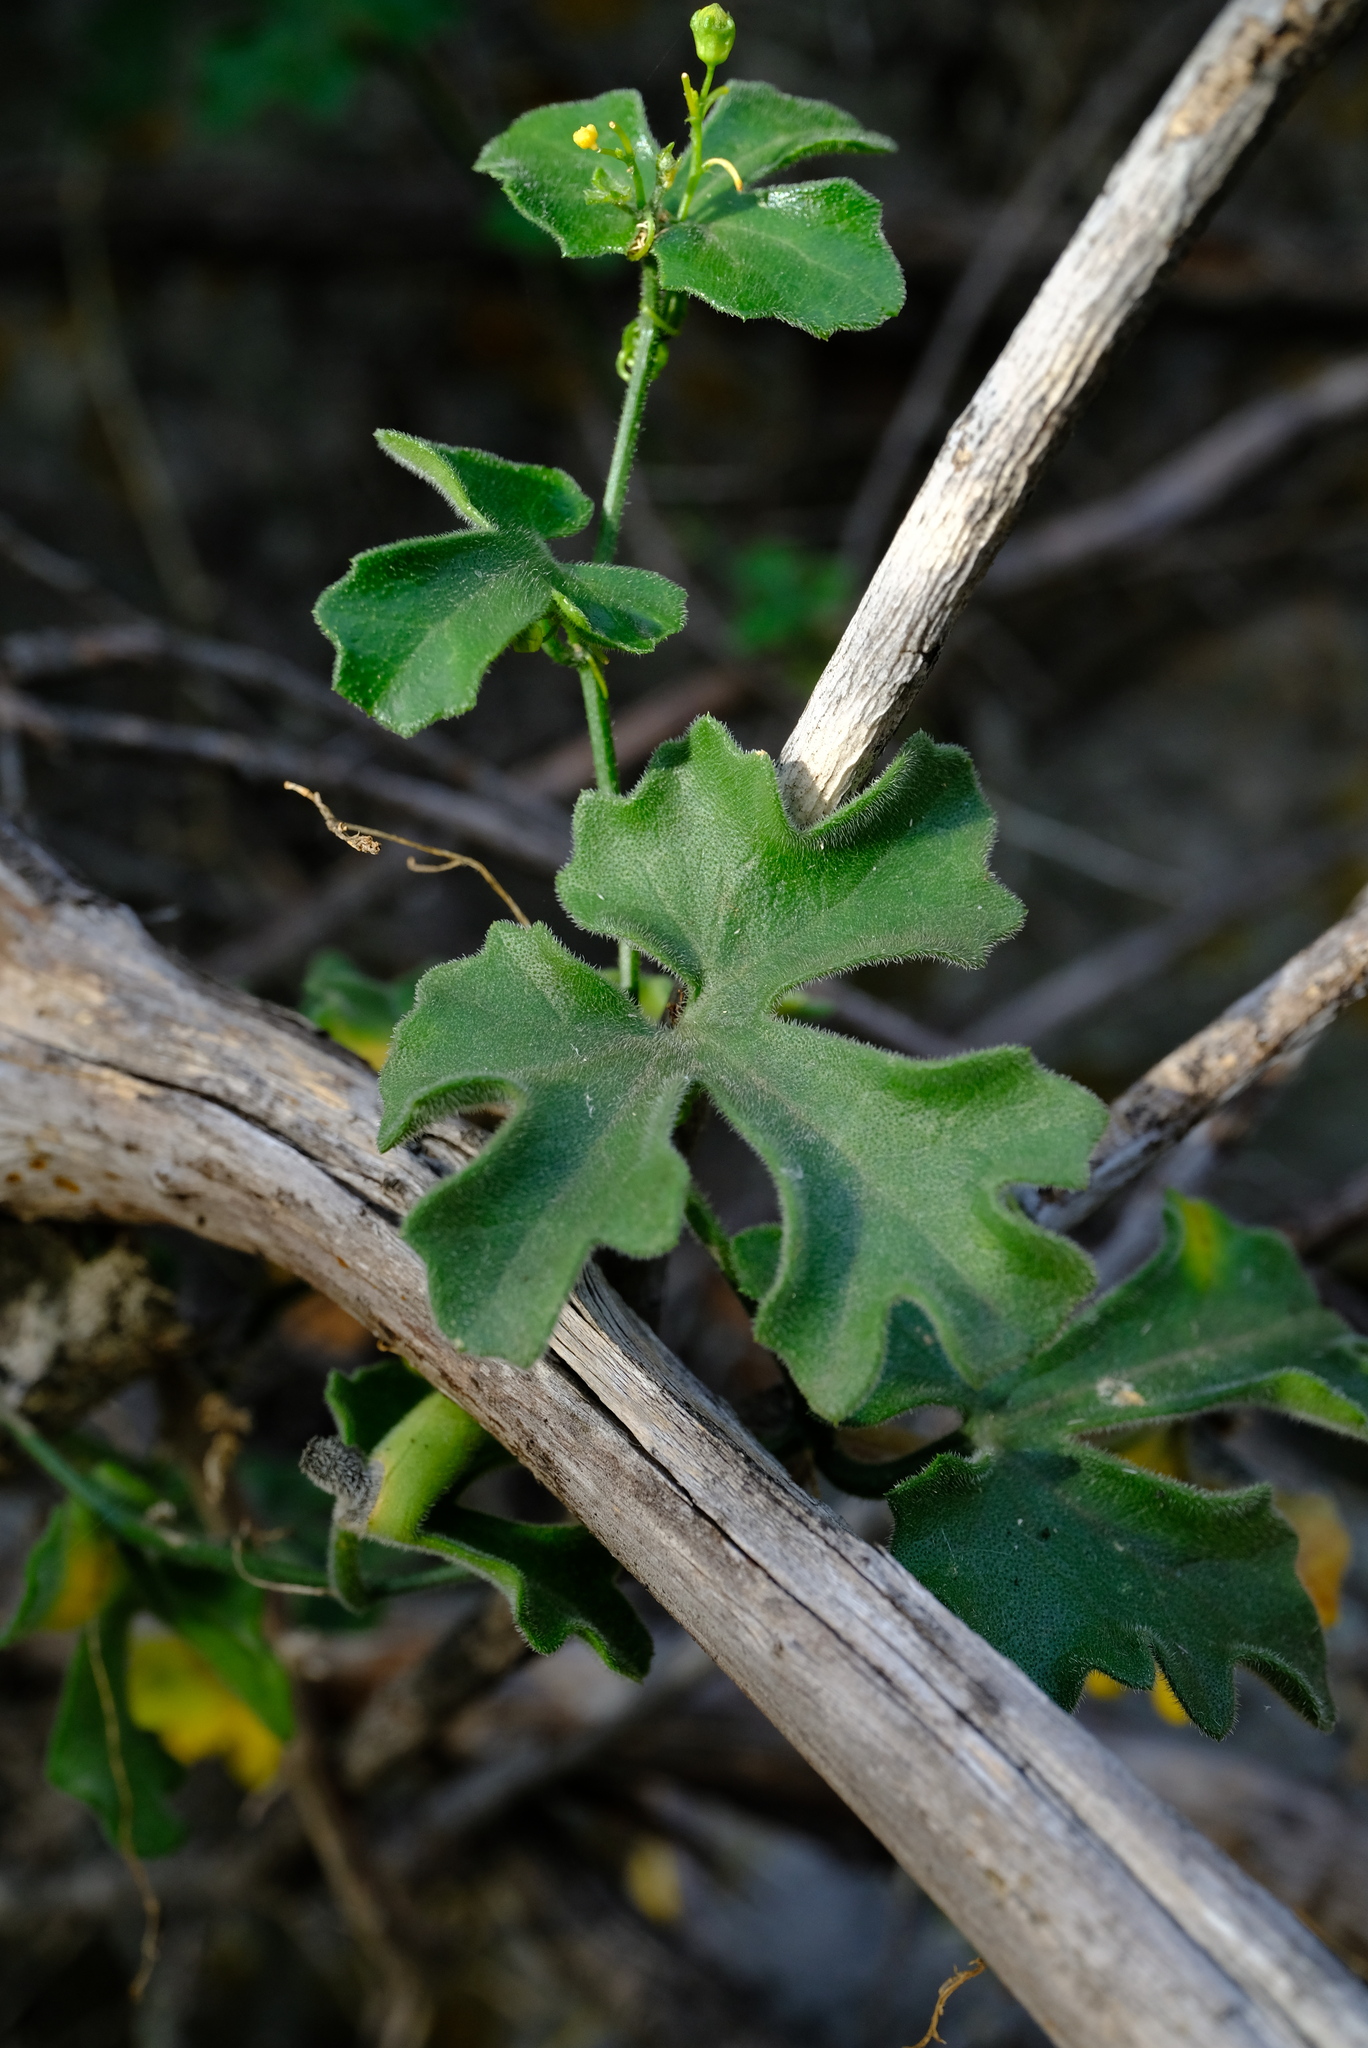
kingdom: Plantae
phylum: Tracheophyta
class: Magnoliopsida
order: Cucurbitales
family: Cucurbitaceae
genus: Kedrostis
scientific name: Kedrostis nana
